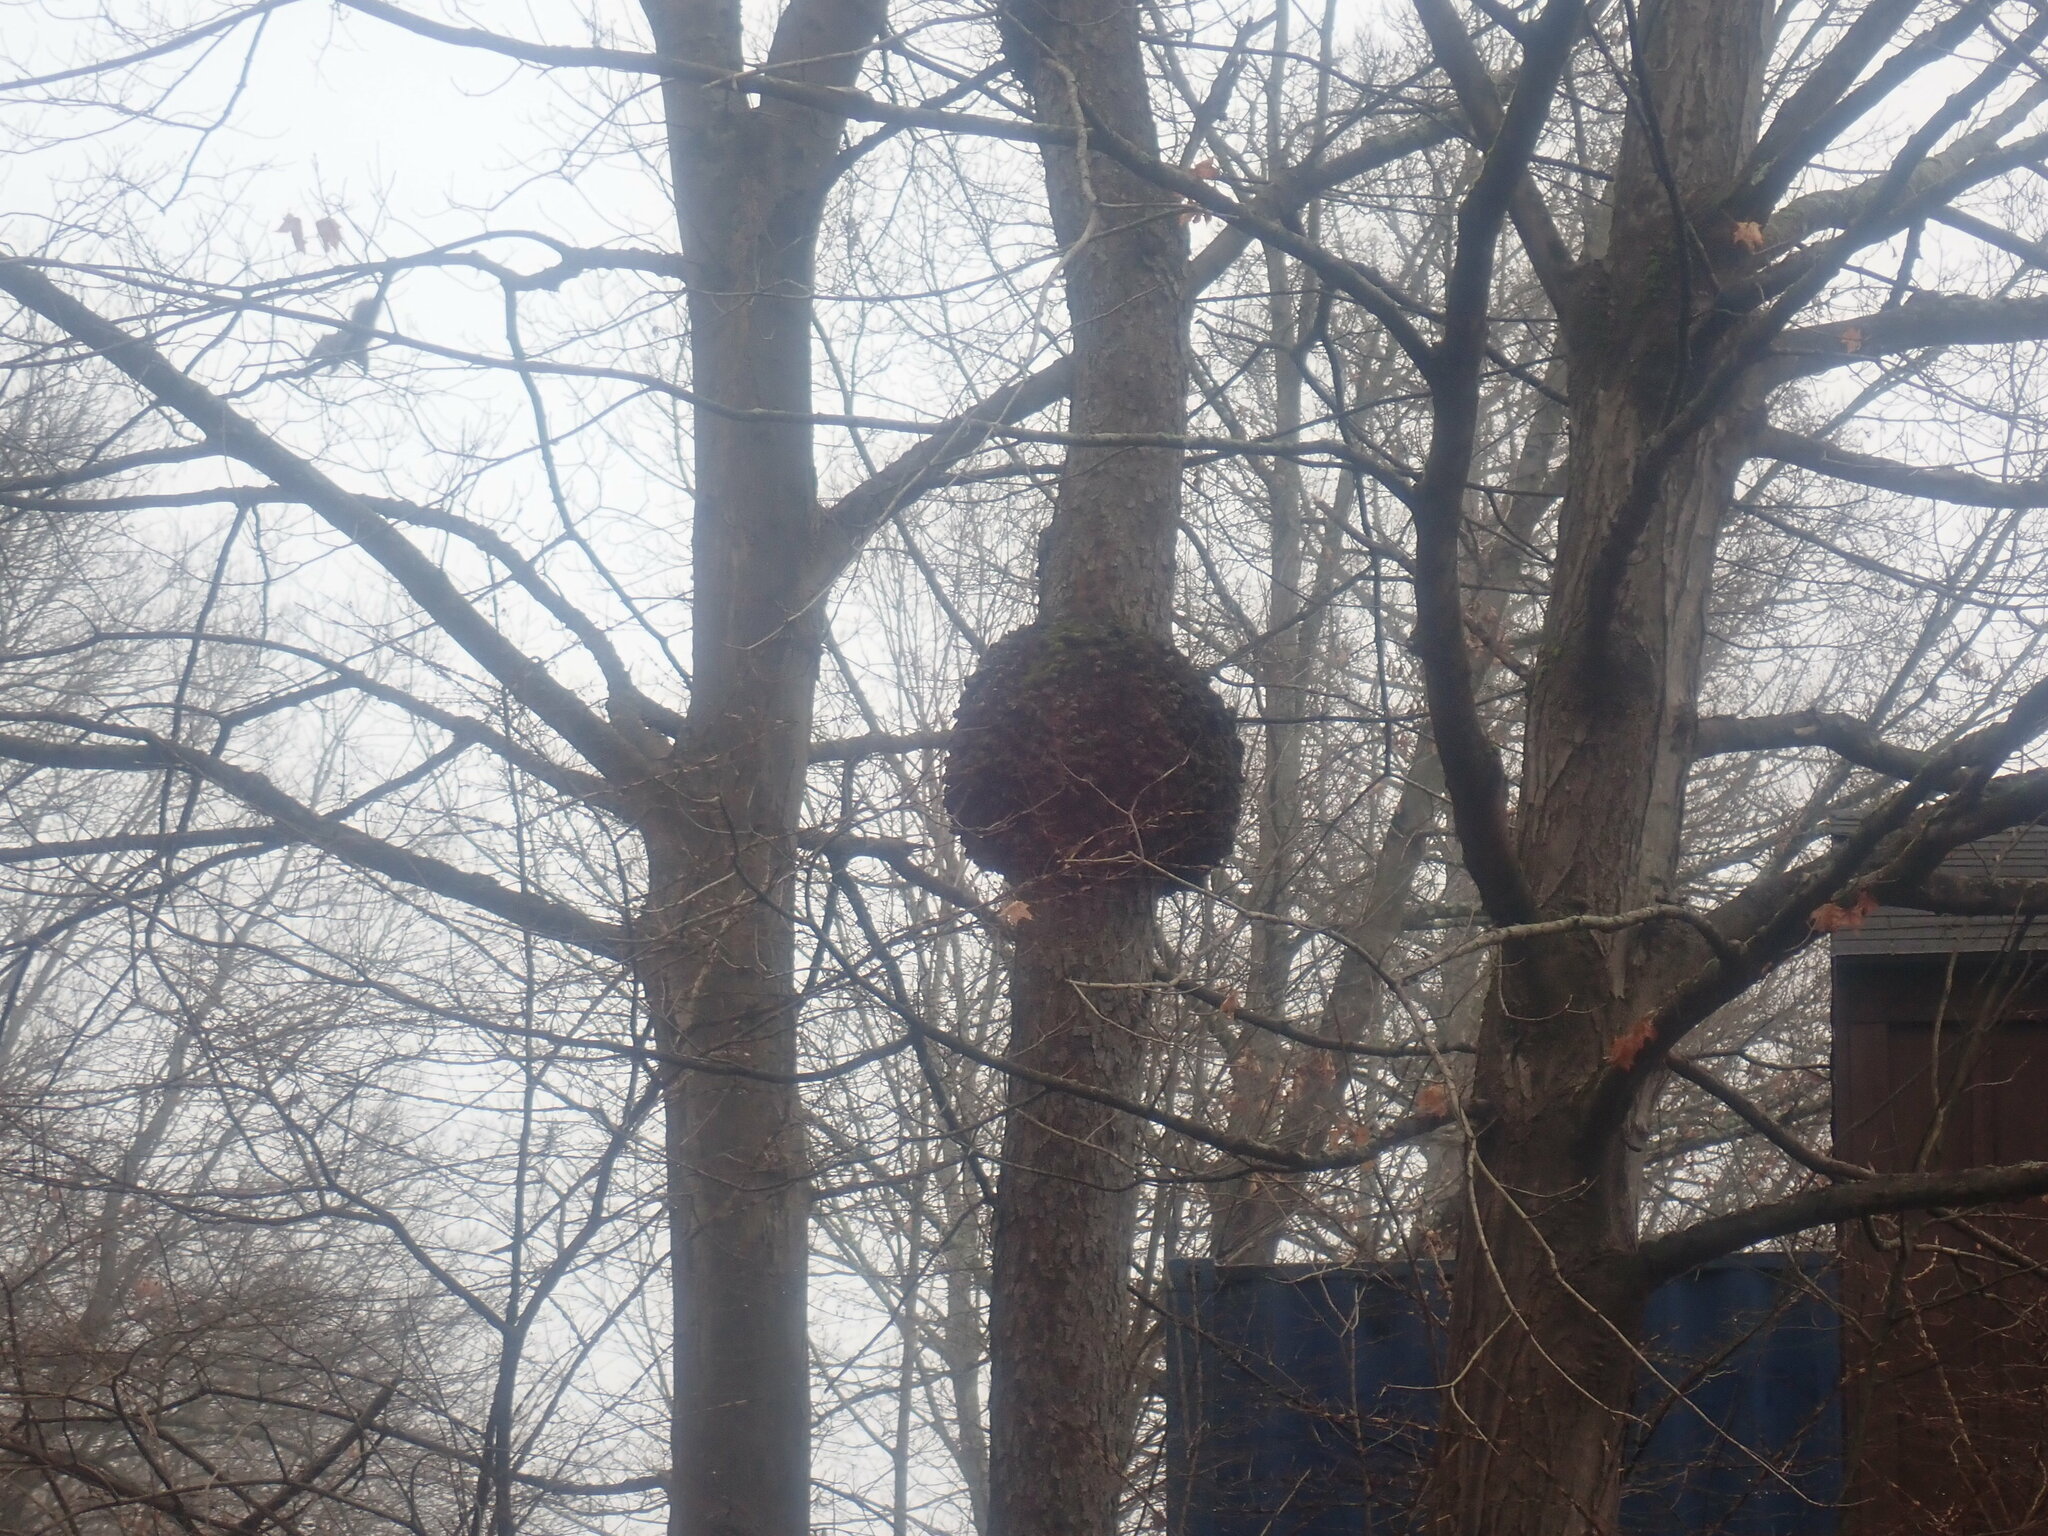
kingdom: Bacteria
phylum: Proteobacteria
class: Alphaproteobacteria
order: Rhizobiales
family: Rhizobiaceae
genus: Rhizobium
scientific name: Rhizobium Agrobacterium radiobacter
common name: Bacterial crown gall
